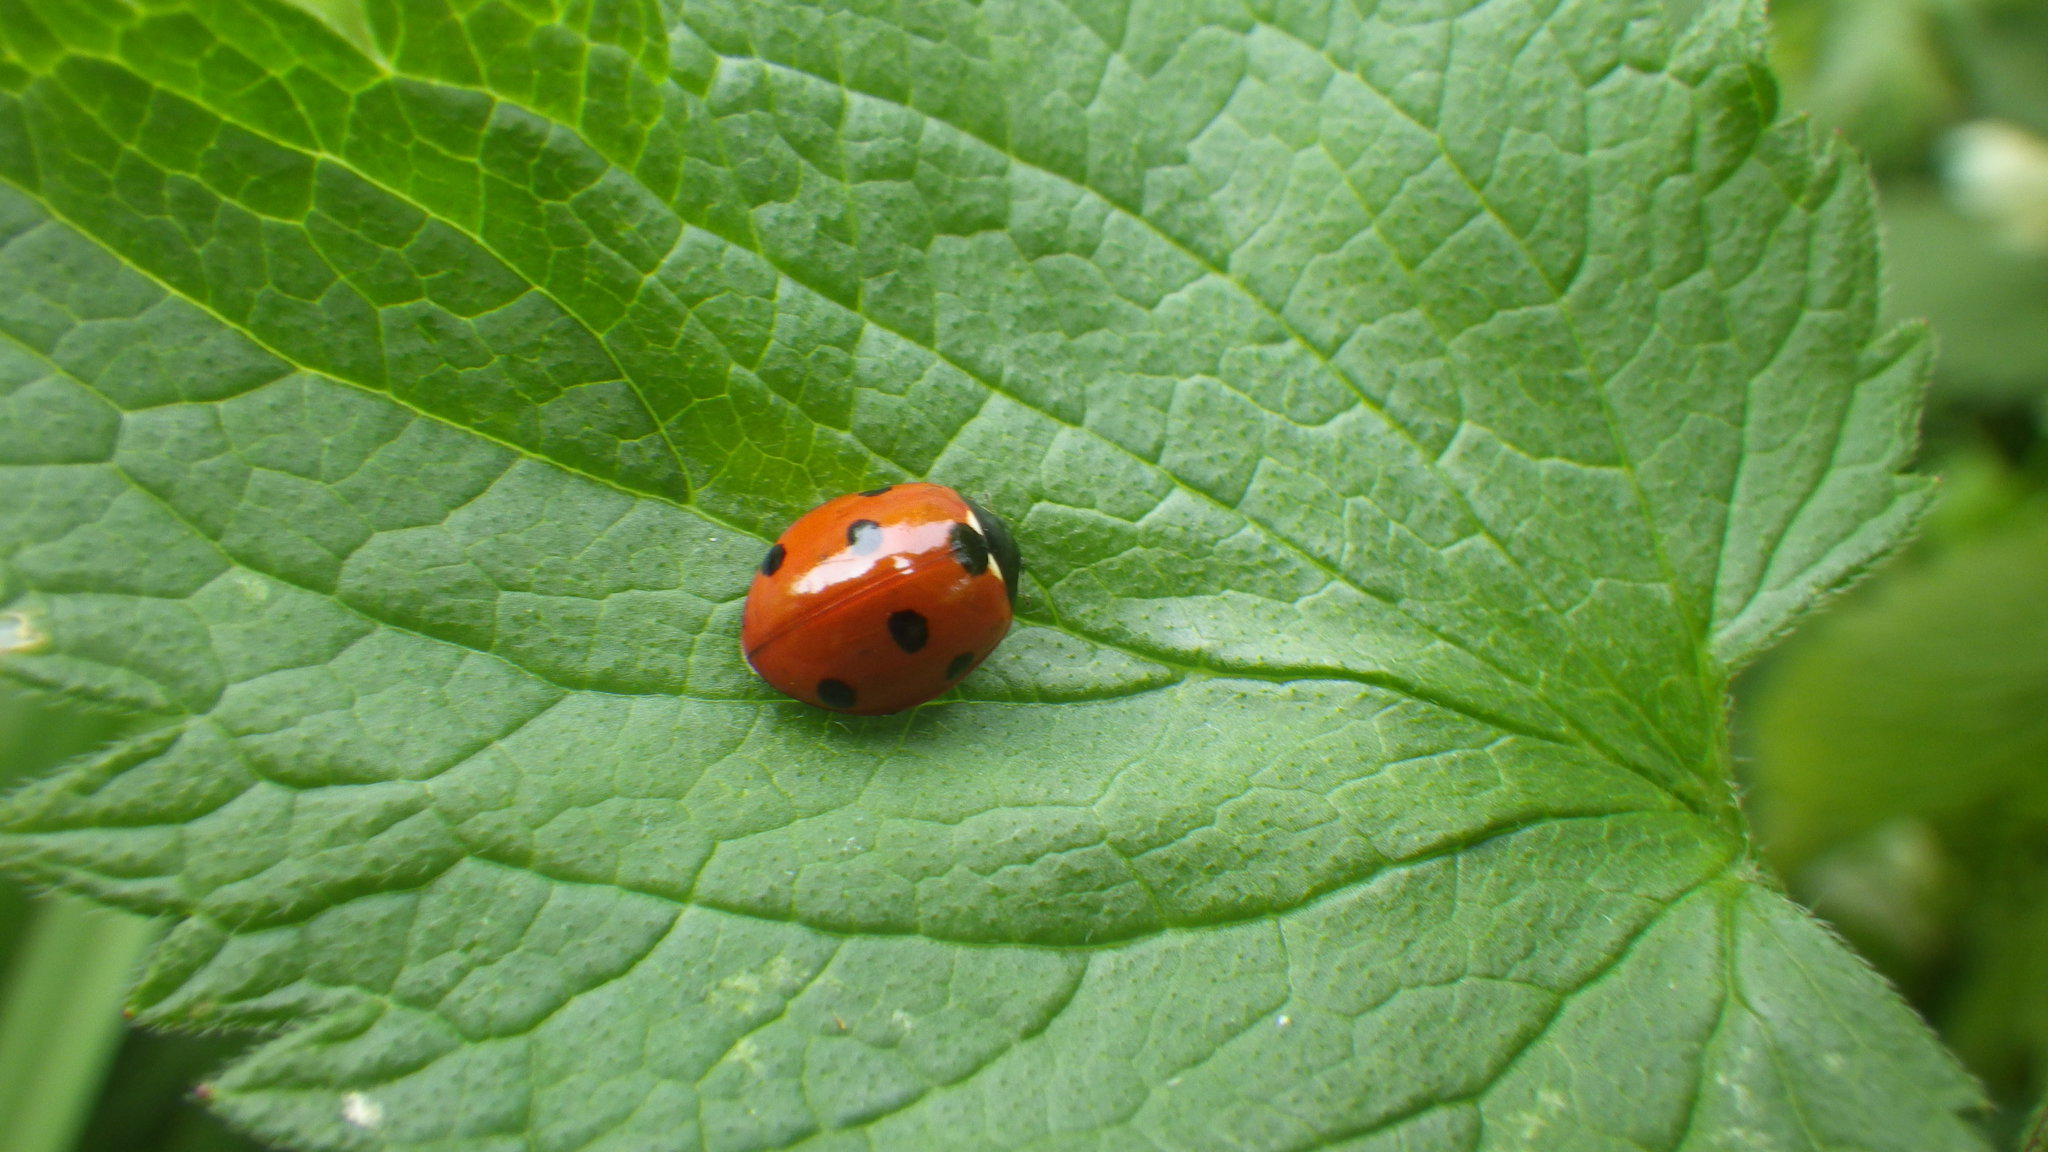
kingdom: Animalia
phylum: Arthropoda
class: Insecta
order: Coleoptera
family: Coccinellidae
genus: Coccinella
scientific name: Coccinella septempunctata
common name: Sevenspotted lady beetle
